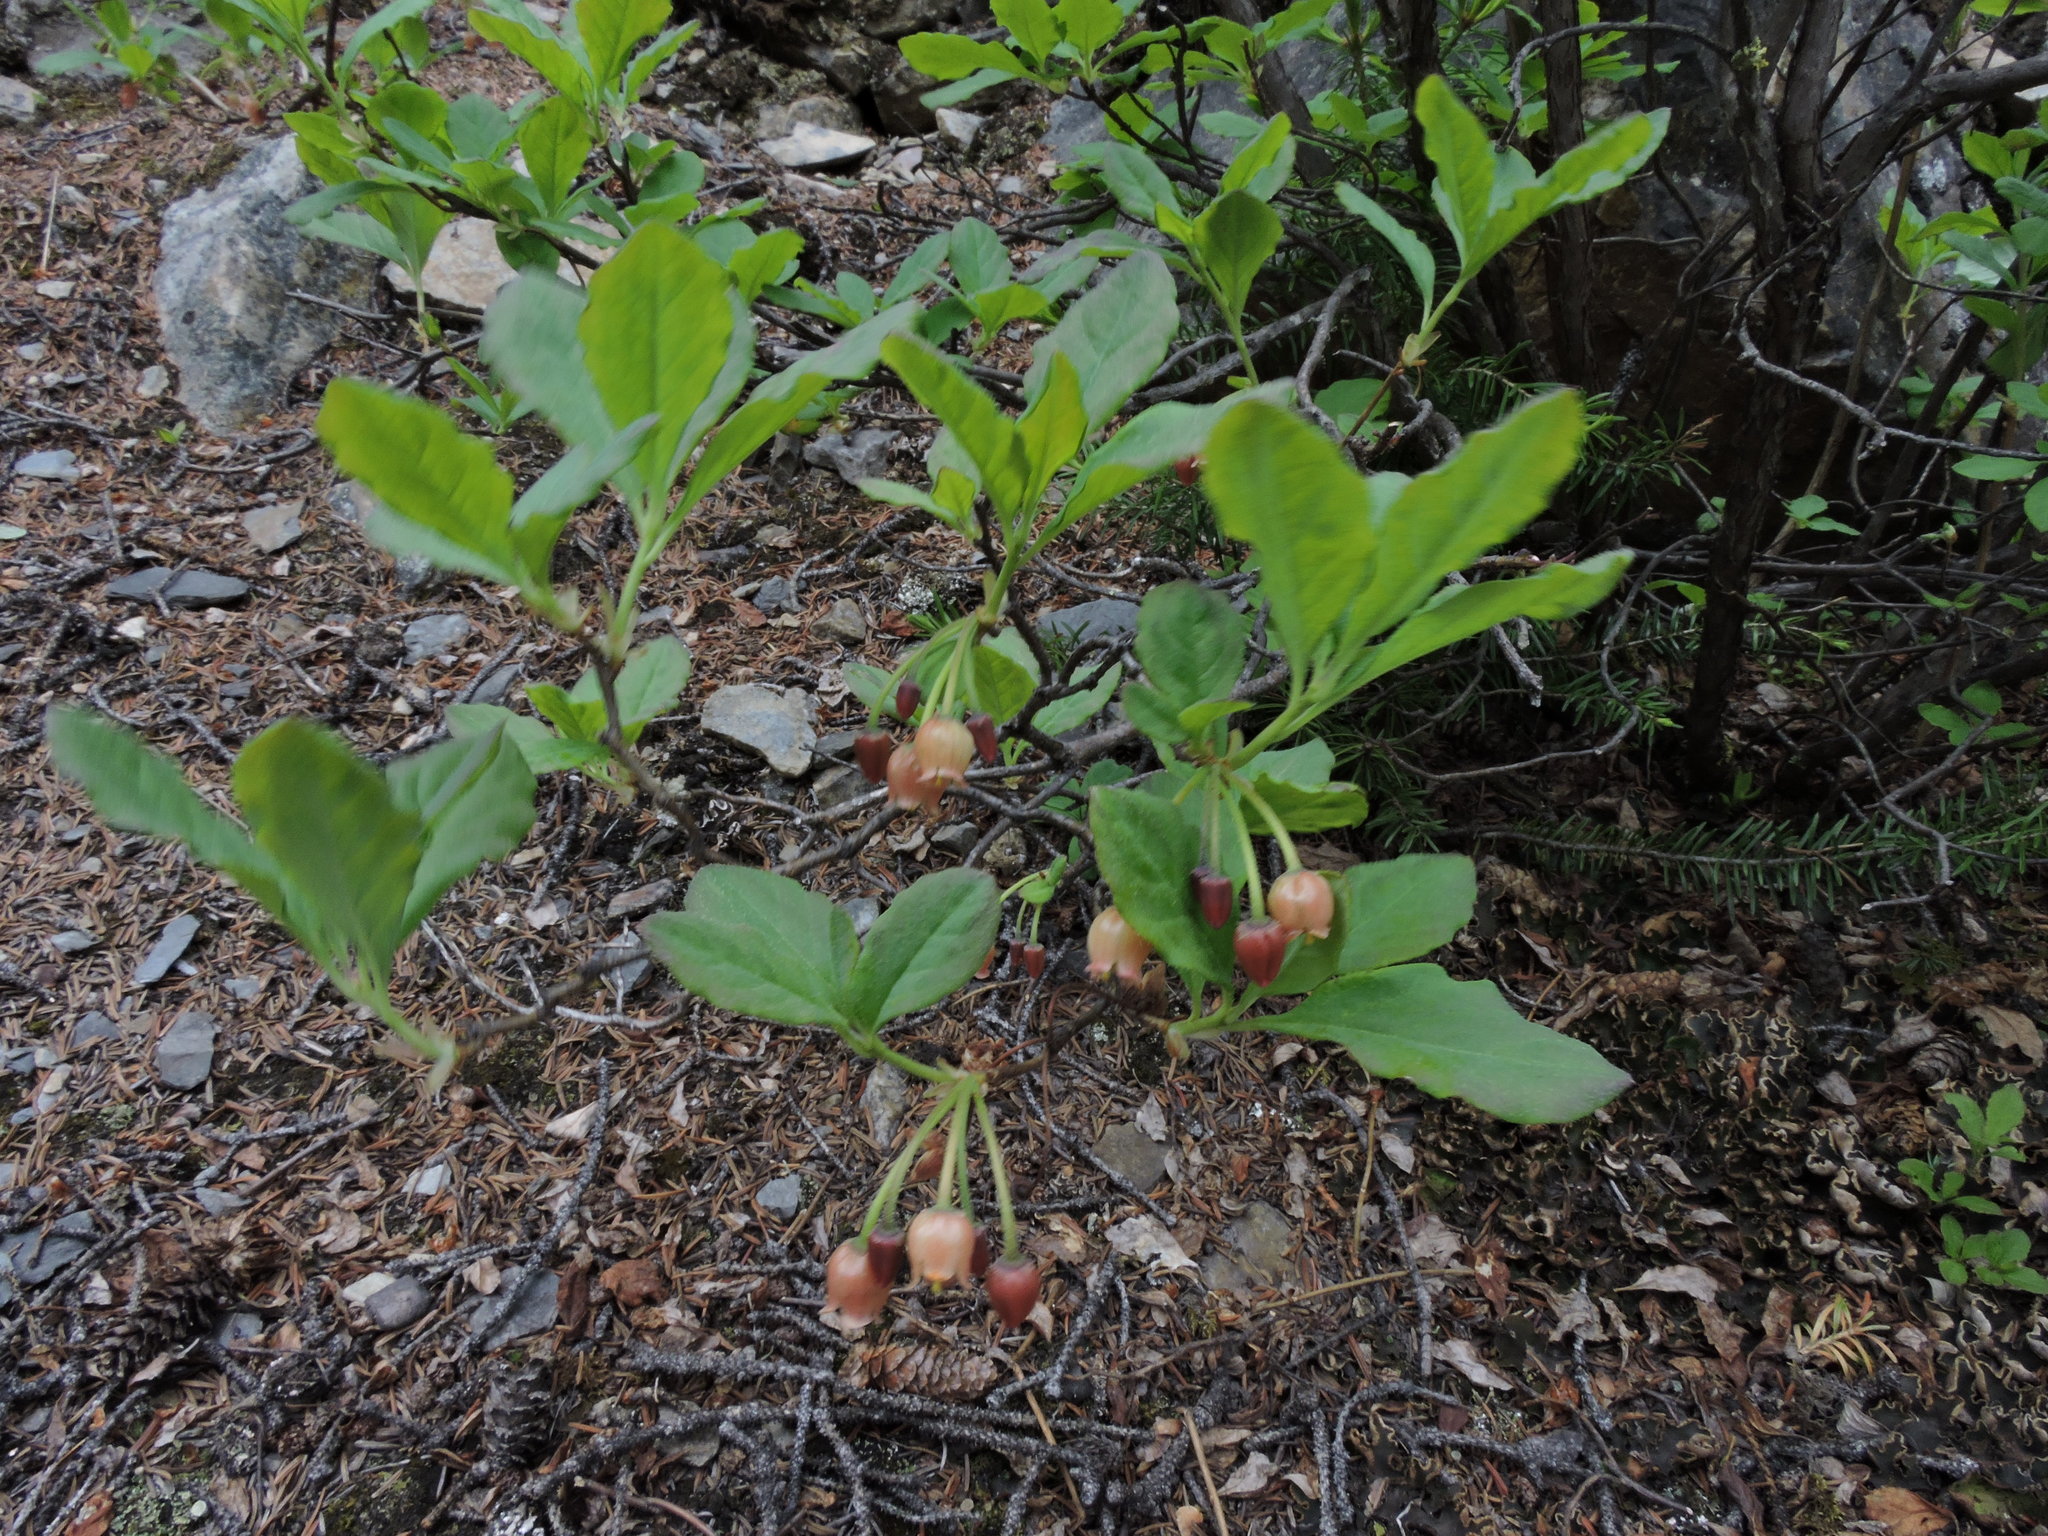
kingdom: Plantae
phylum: Tracheophyta
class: Magnoliopsida
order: Ericales
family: Ericaceae
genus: Rhododendron
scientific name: Rhododendron menziesii
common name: Pacific menziesia
